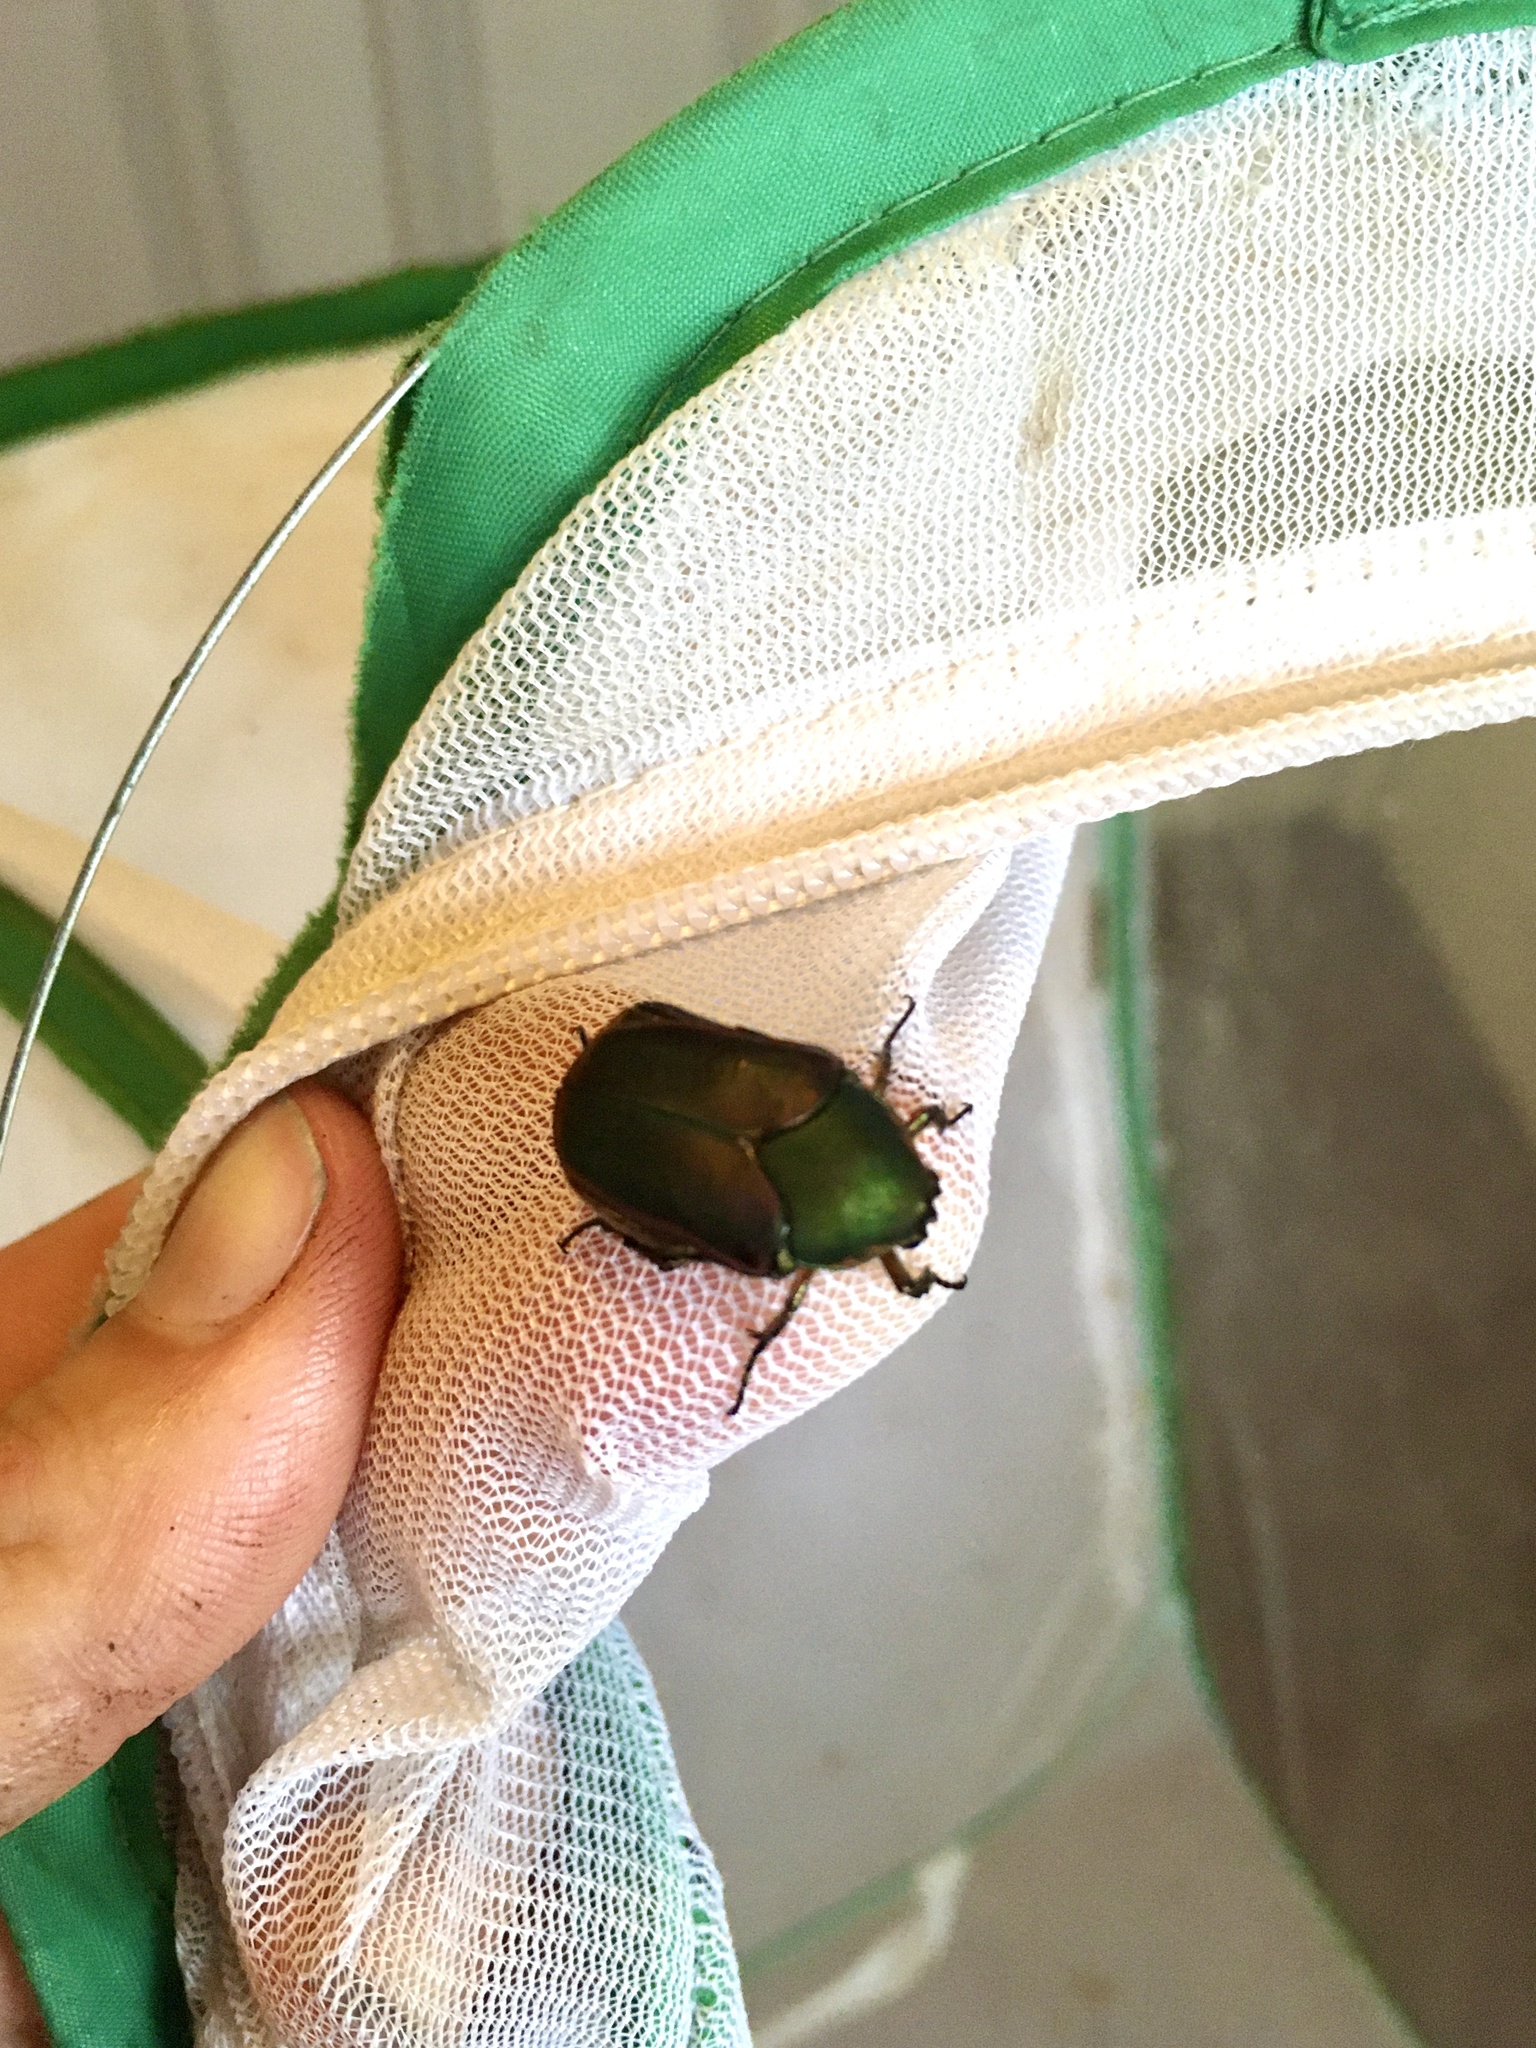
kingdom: Animalia
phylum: Arthropoda
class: Insecta
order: Coleoptera
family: Scarabaeidae
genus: Cotinis
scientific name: Cotinis nitida
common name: Common green june beetle
